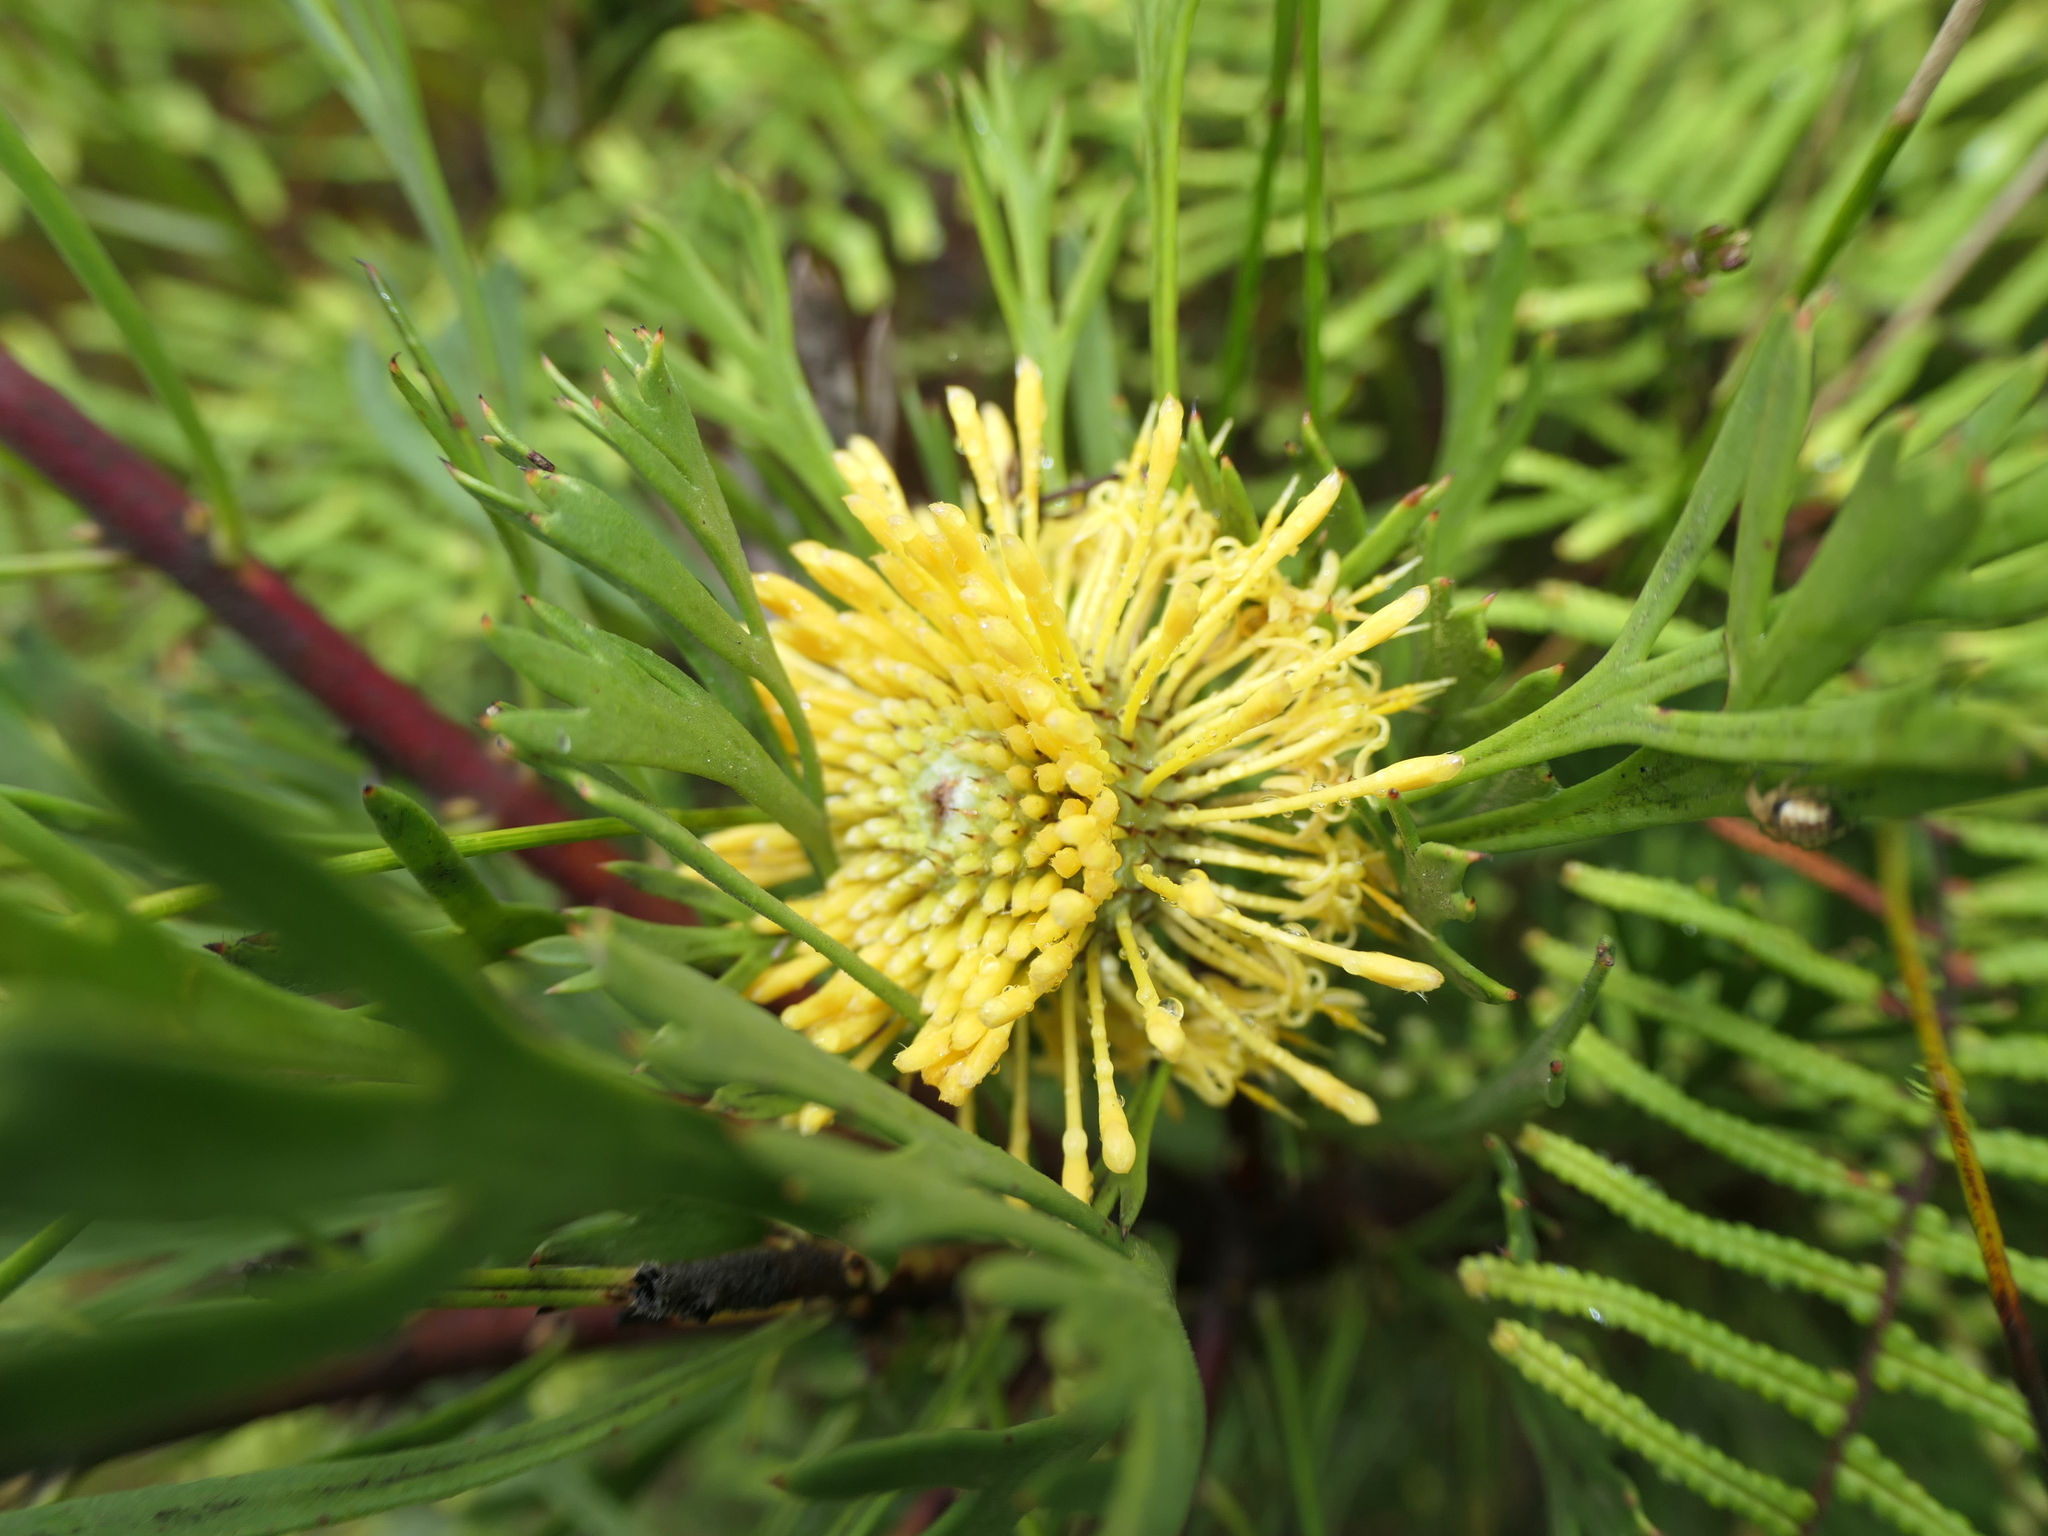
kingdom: Plantae
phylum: Tracheophyta
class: Magnoliopsida
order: Proteales
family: Proteaceae
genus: Isopogon
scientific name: Isopogon anemonifolius
